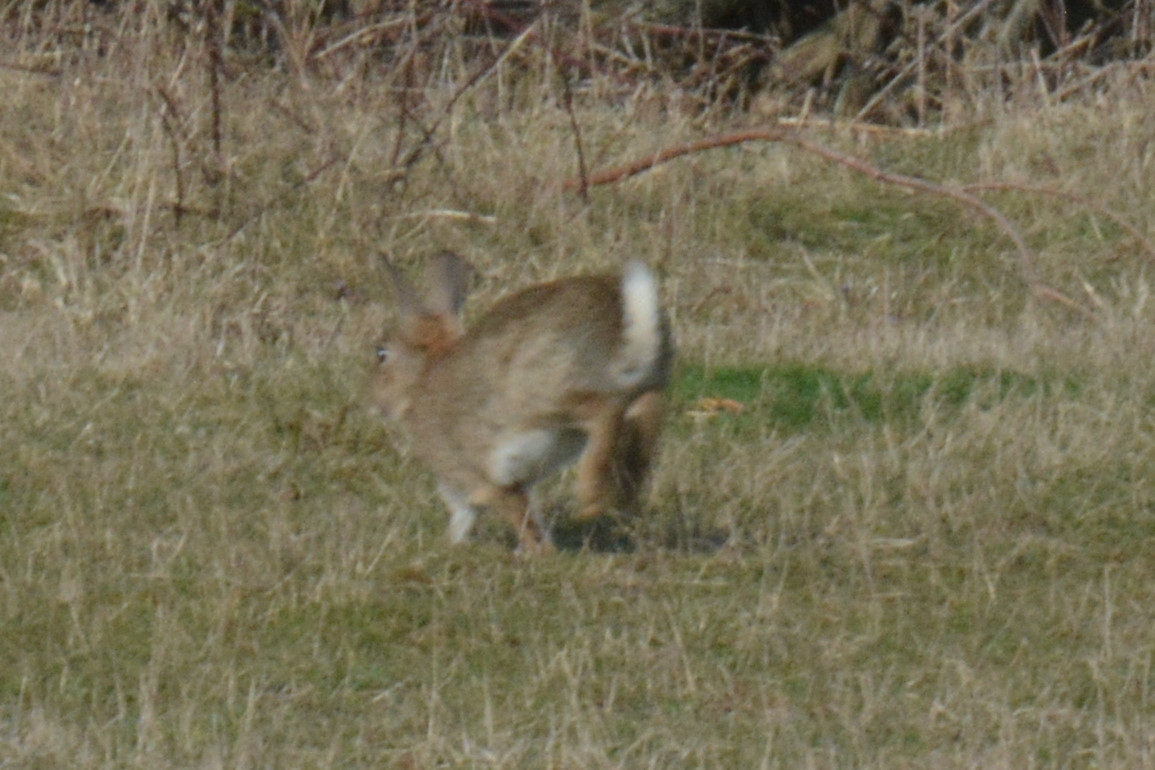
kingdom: Animalia
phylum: Chordata
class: Mammalia
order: Lagomorpha
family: Leporidae
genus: Oryctolagus
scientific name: Oryctolagus cuniculus
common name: European rabbit
